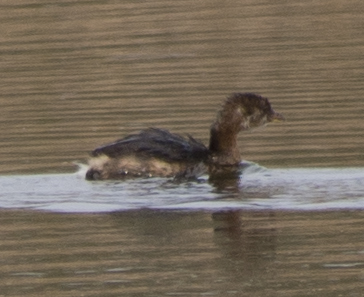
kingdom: Animalia
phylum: Chordata
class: Aves
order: Podicipediformes
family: Podicipedidae
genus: Podilymbus
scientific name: Podilymbus podiceps
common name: Pied-billed grebe
